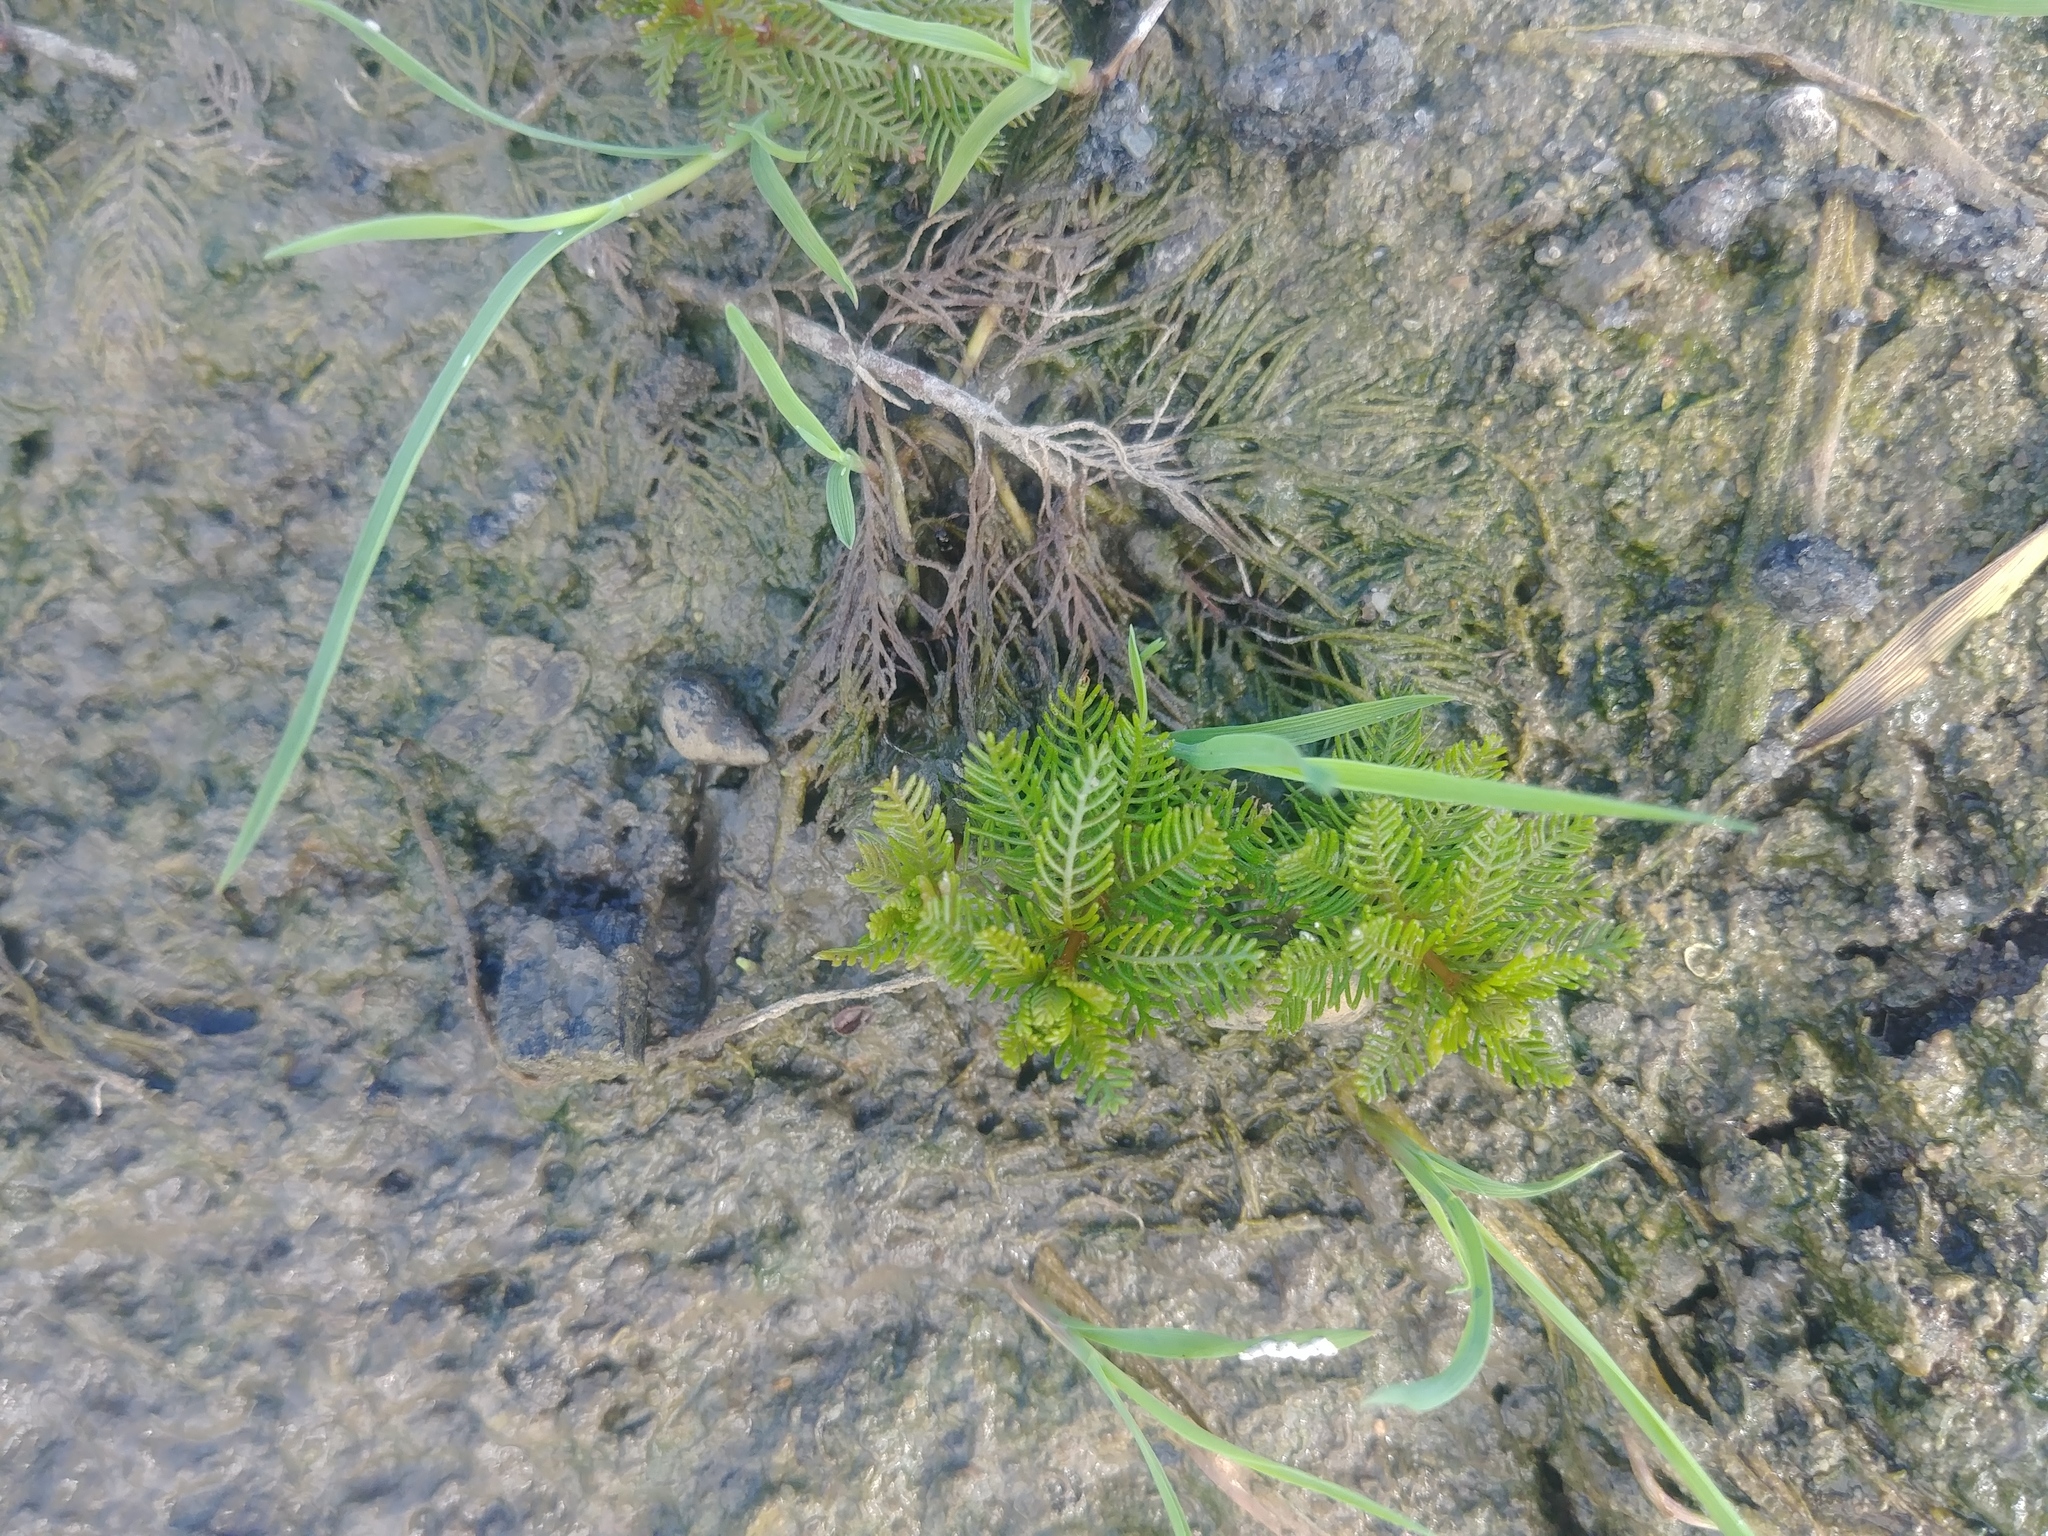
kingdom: Plantae
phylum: Tracheophyta
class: Magnoliopsida
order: Saxifragales
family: Haloragaceae
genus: Proserpinaca
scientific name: Proserpinaca palustris
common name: Marsh mermaidweed
